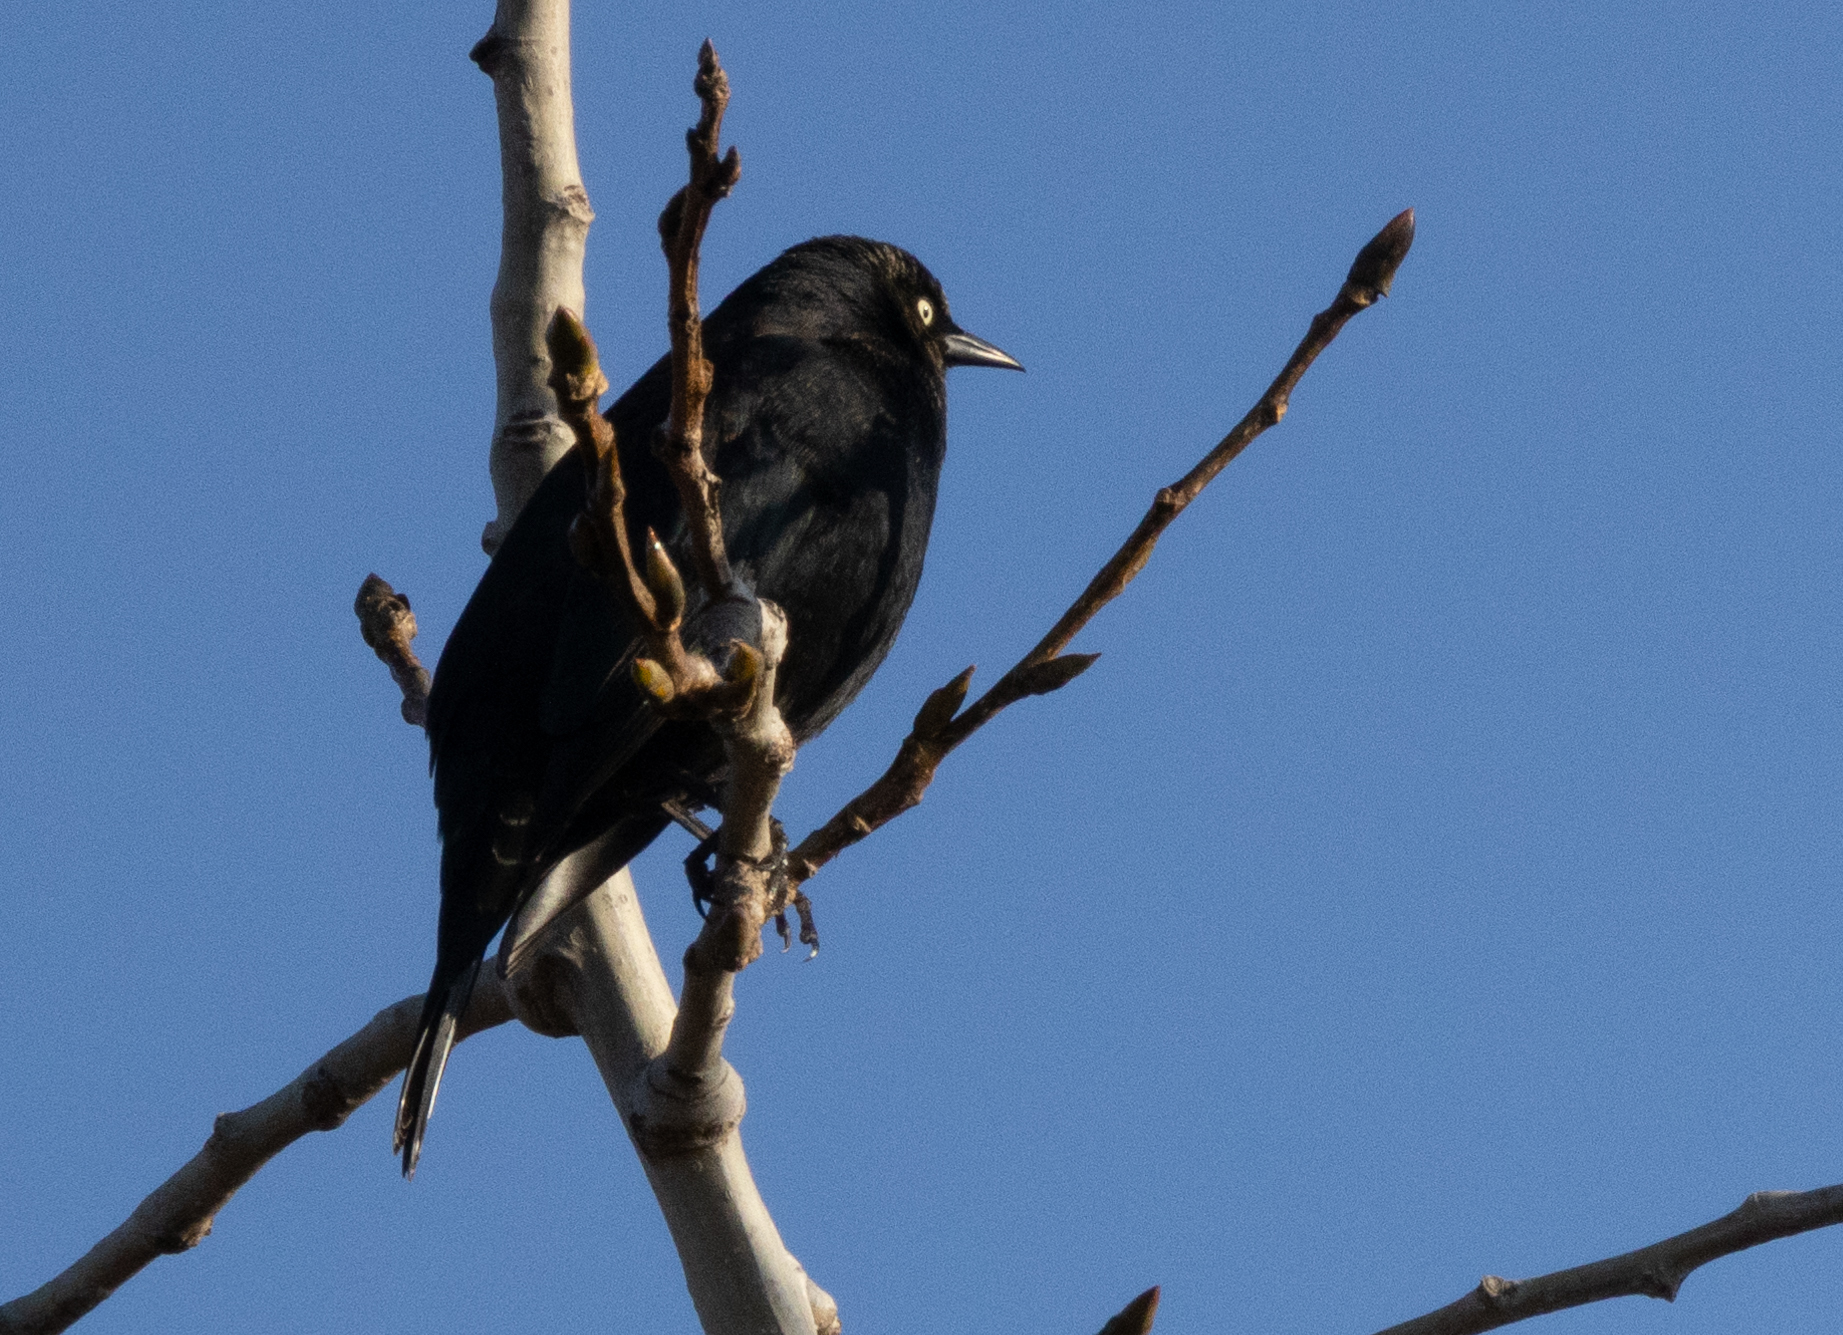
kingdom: Animalia
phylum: Chordata
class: Aves
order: Passeriformes
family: Icteridae
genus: Euphagus
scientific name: Euphagus carolinus
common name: Rusty blackbird
